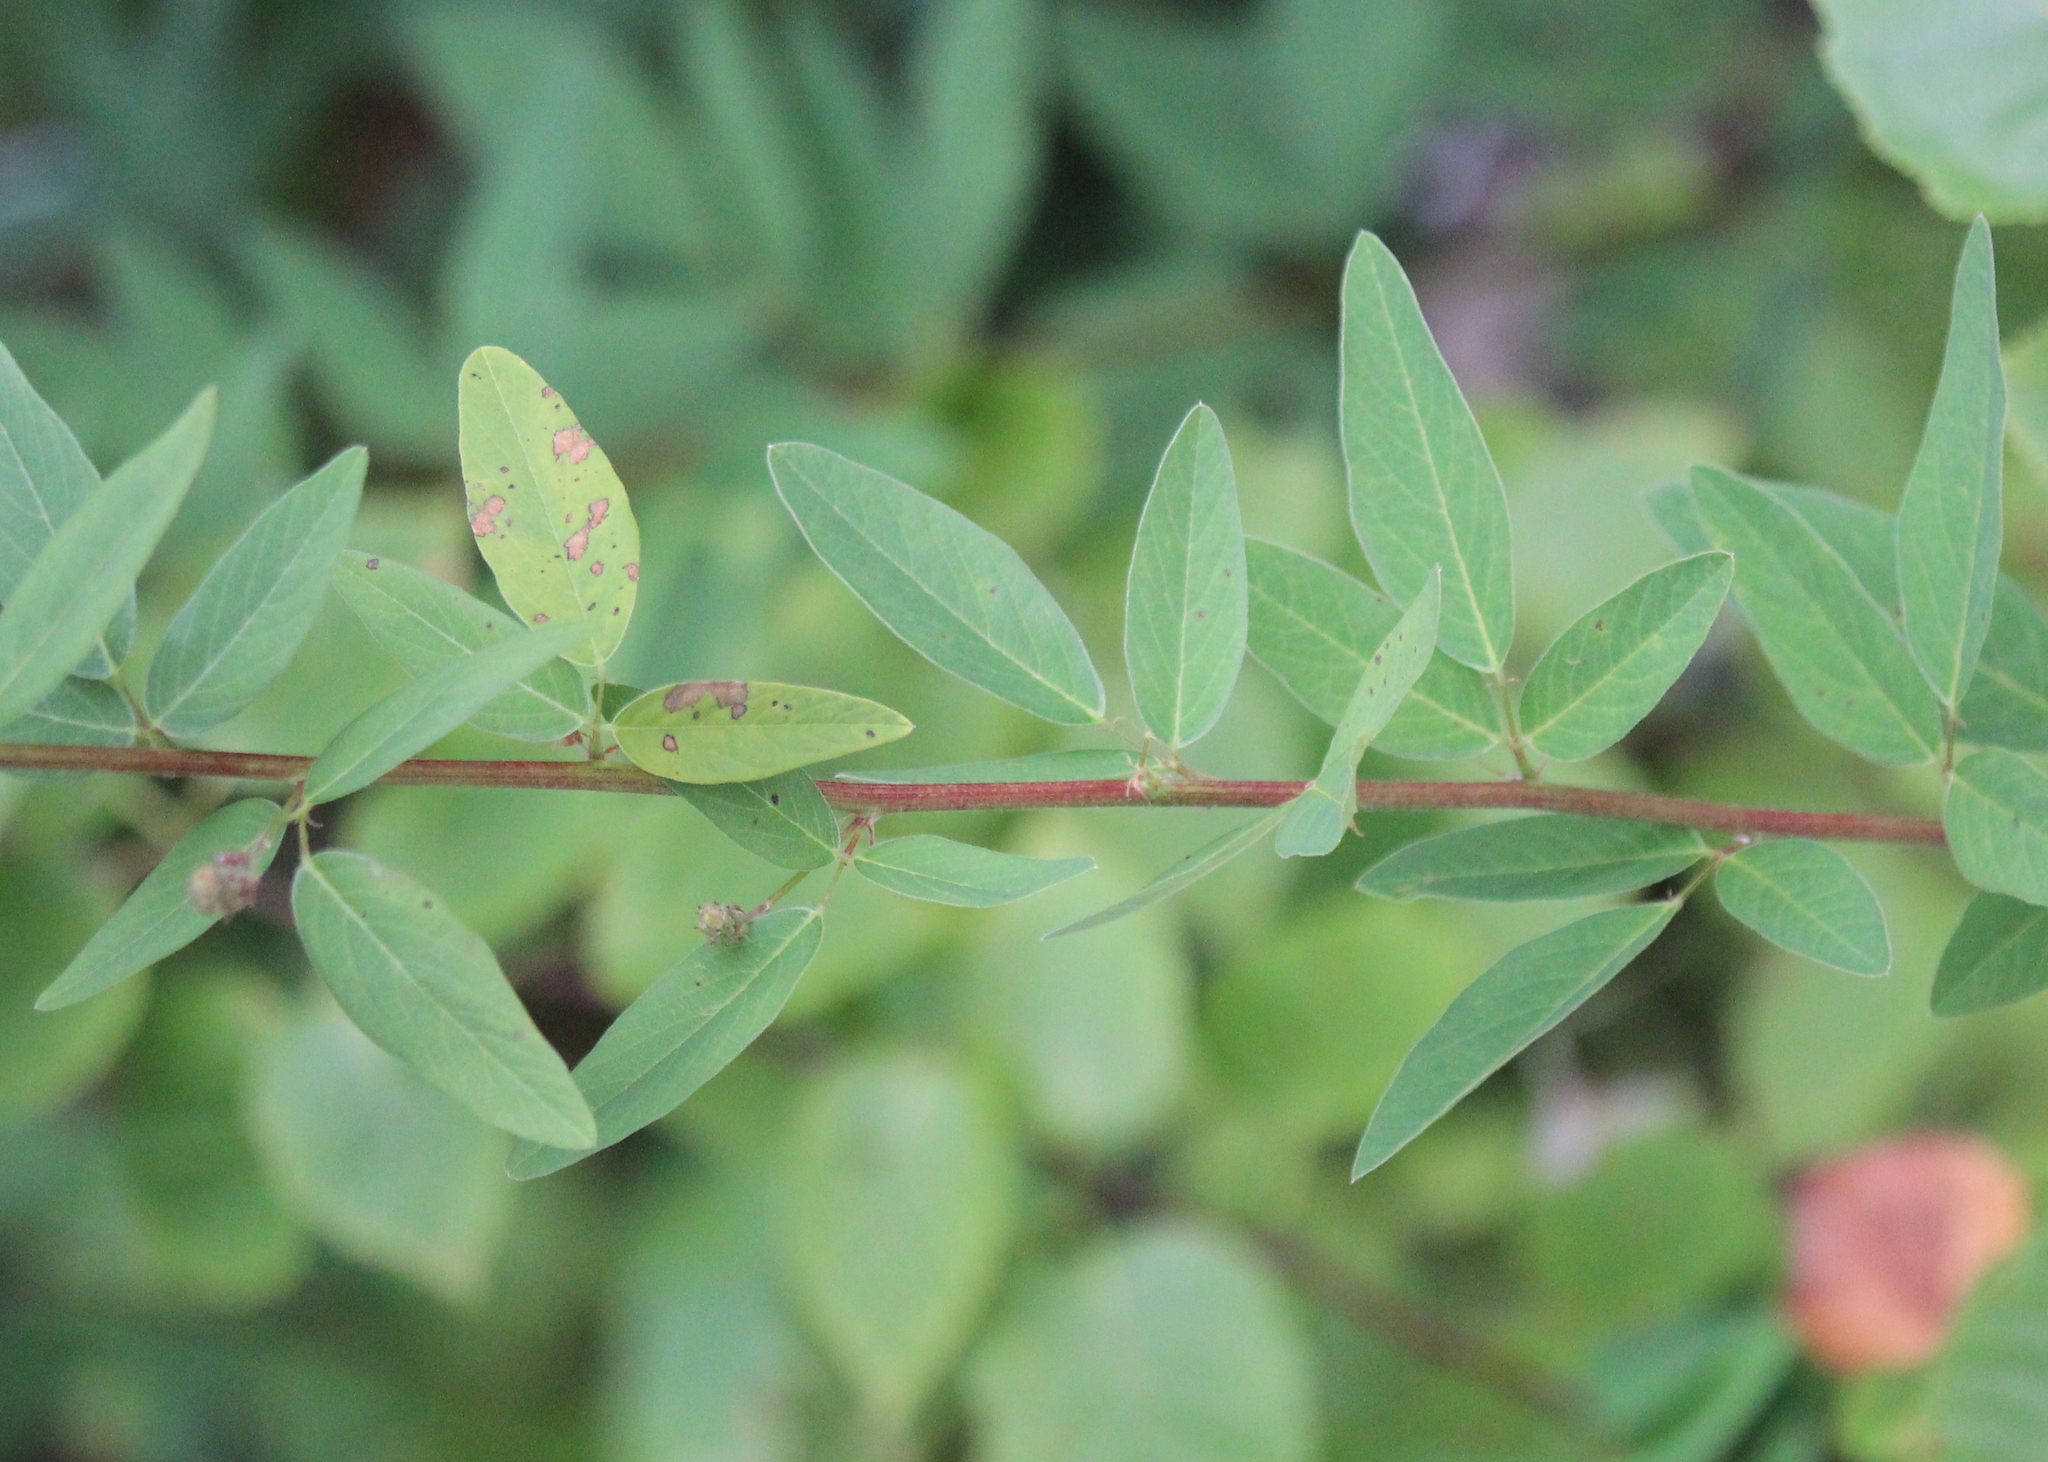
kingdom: Plantae
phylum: Tracheophyta
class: Magnoliopsida
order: Fabales
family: Fabaceae
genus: Desmodium
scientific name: Desmodium canadense
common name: Canada tick-trefoil
